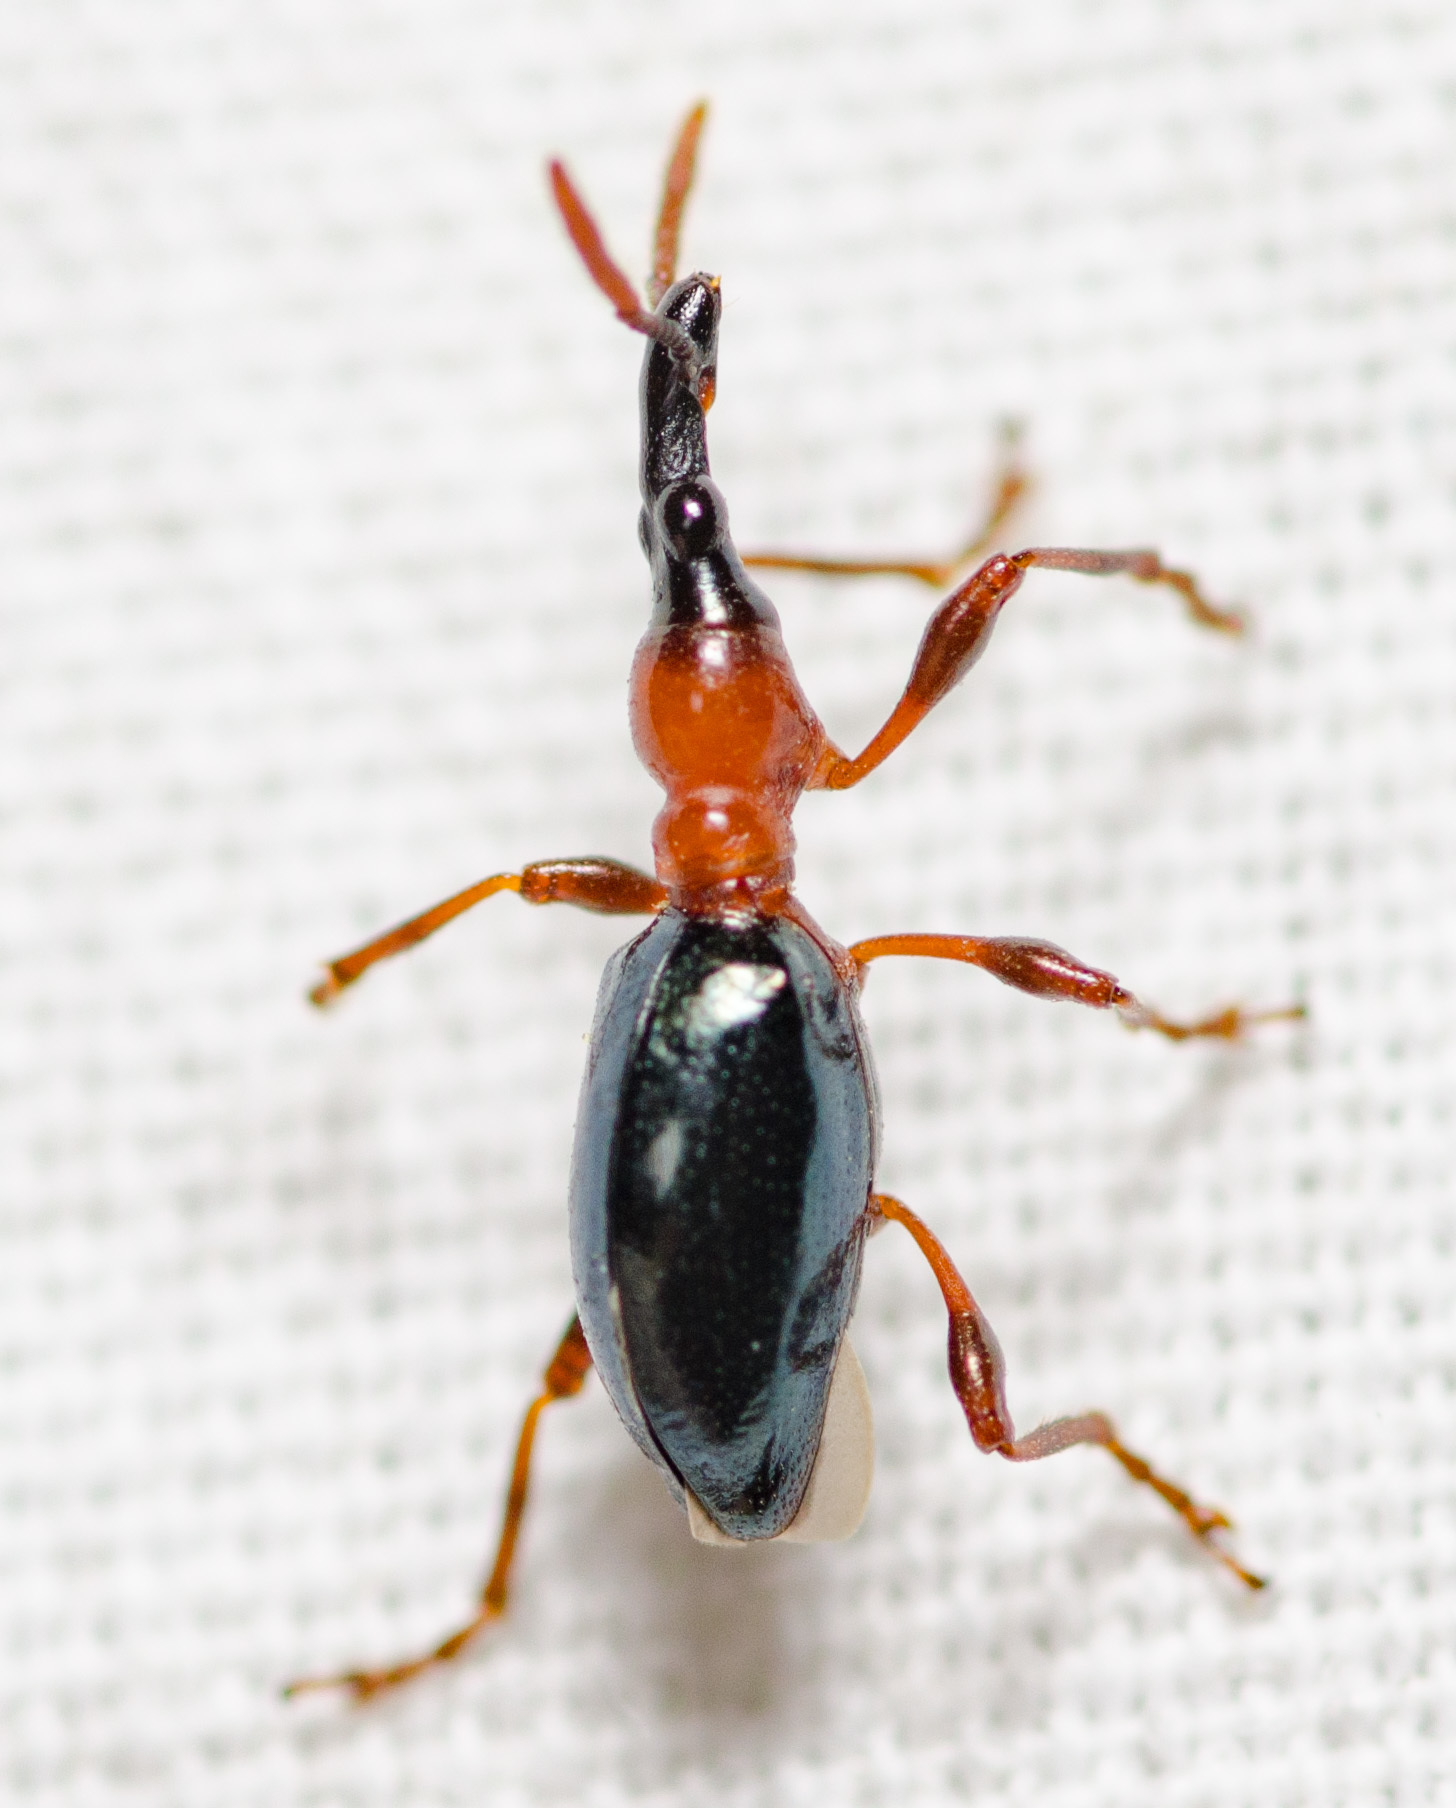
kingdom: Animalia
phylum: Arthropoda
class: Insecta
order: Coleoptera
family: Brentidae
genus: Cylas
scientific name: Cylas formicarius
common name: Sweetpotato weevil
